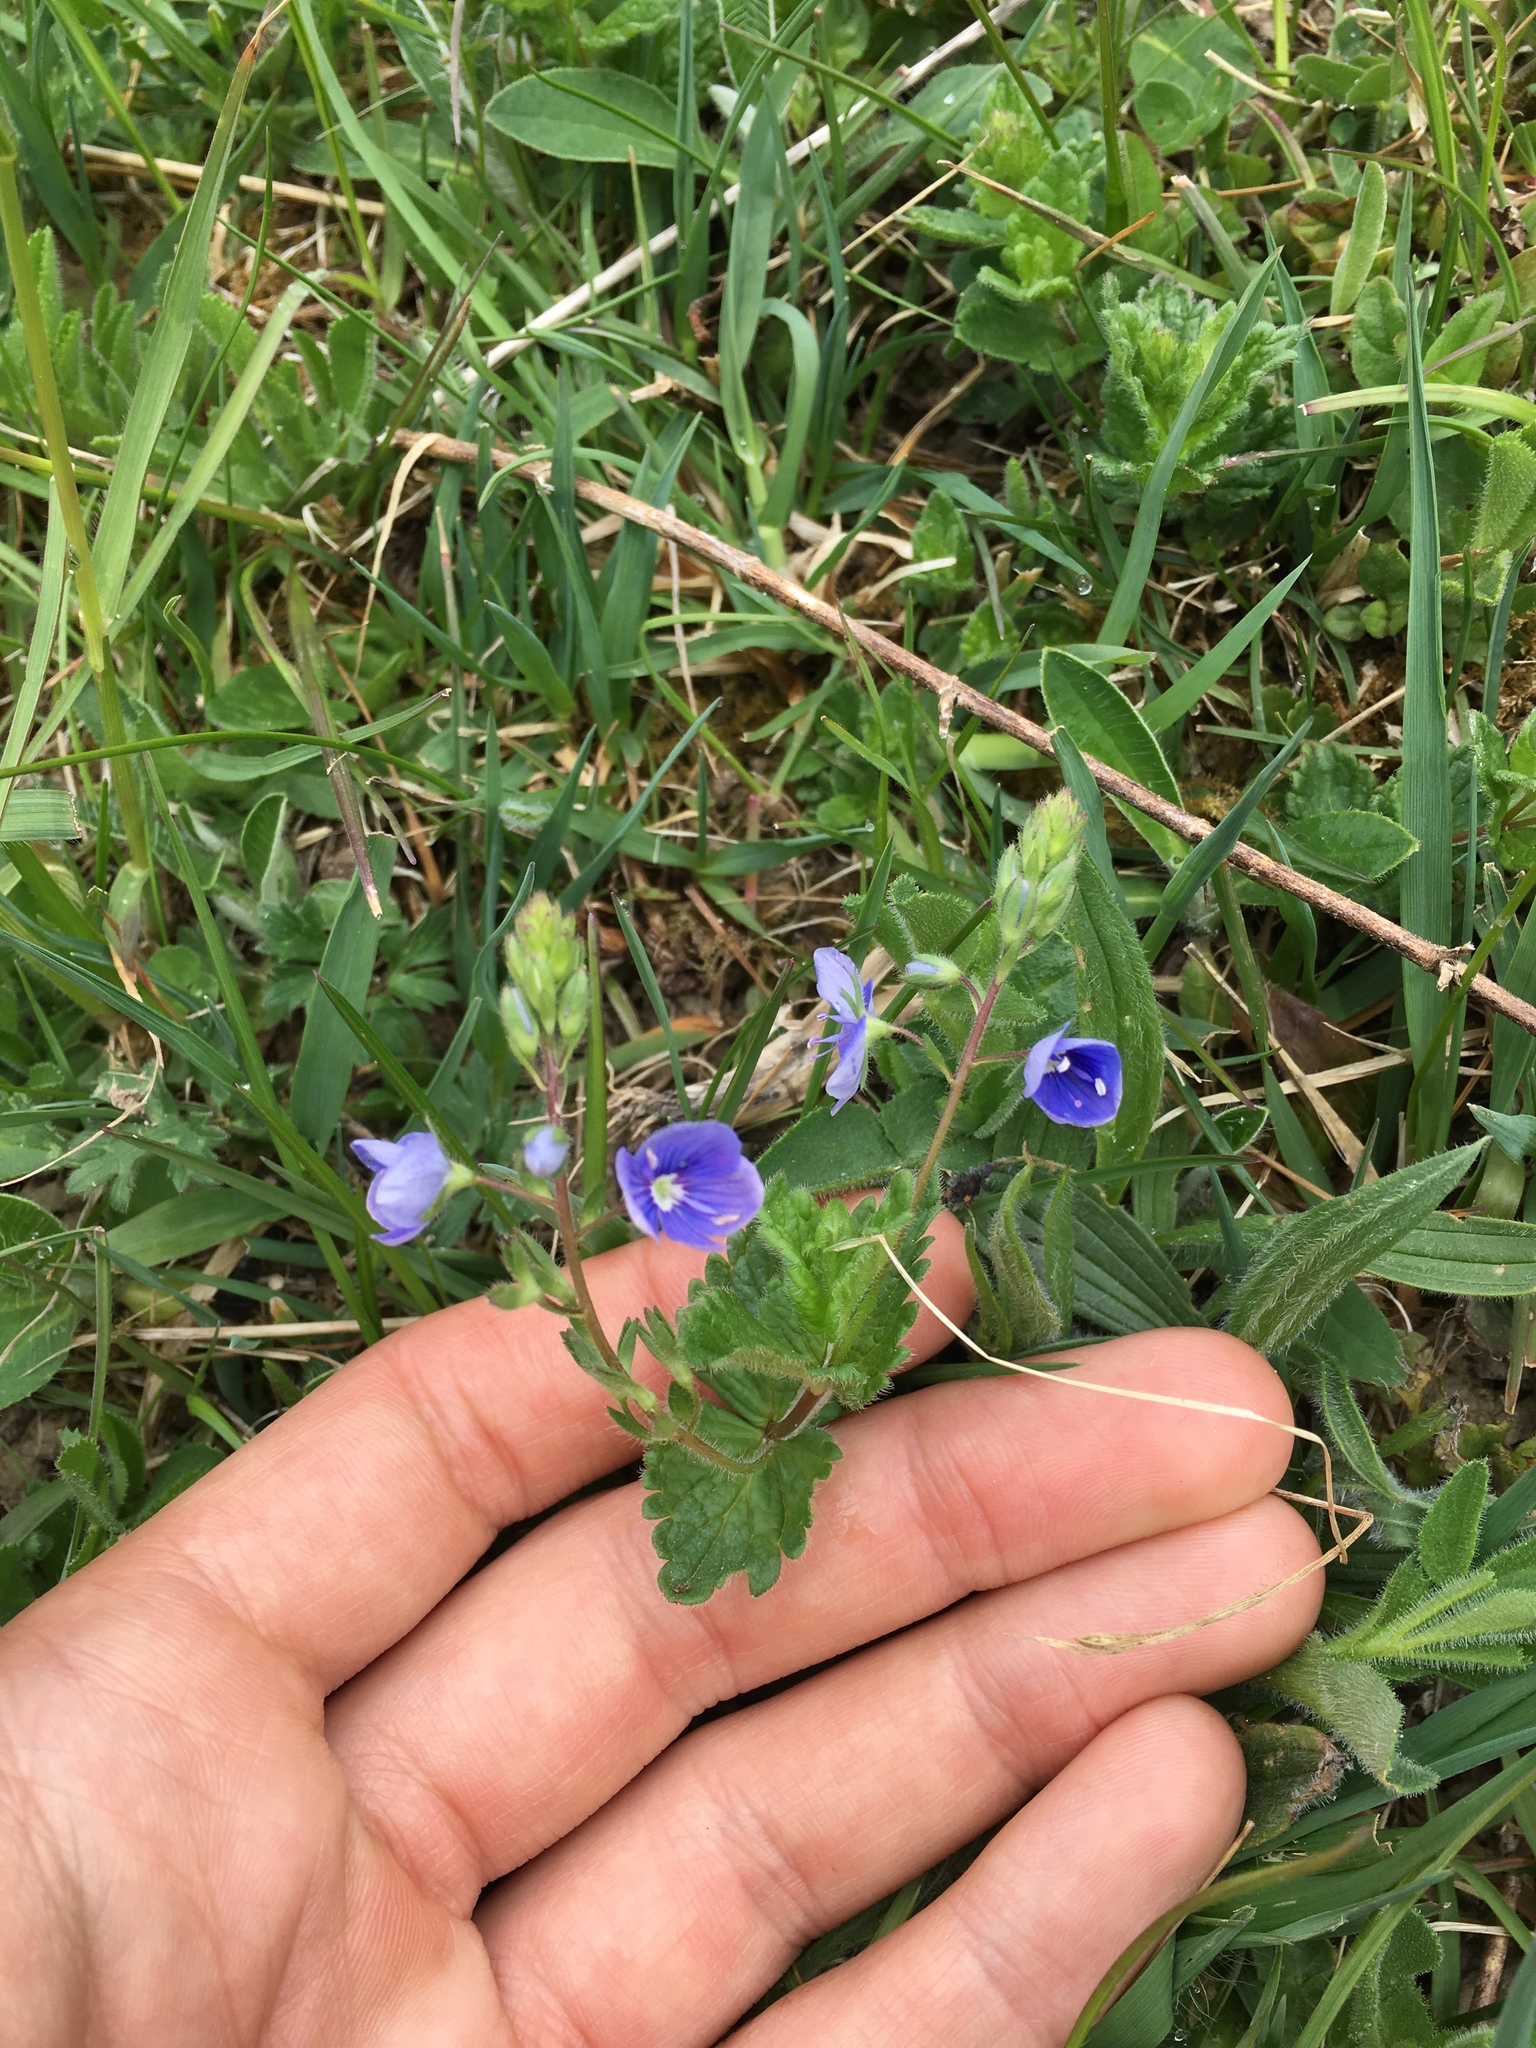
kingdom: Plantae
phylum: Tracheophyta
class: Magnoliopsida
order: Lamiales
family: Plantaginaceae
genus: Veronica
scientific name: Veronica chamaedrys
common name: Germander speedwell
